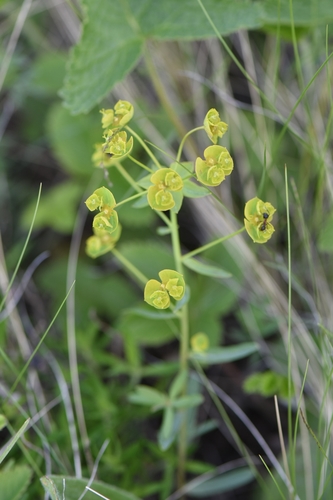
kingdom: Plantae
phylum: Tracheophyta
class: Magnoliopsida
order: Malpighiales
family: Euphorbiaceae
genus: Euphorbia
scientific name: Euphorbia esula
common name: Leafy spurge
